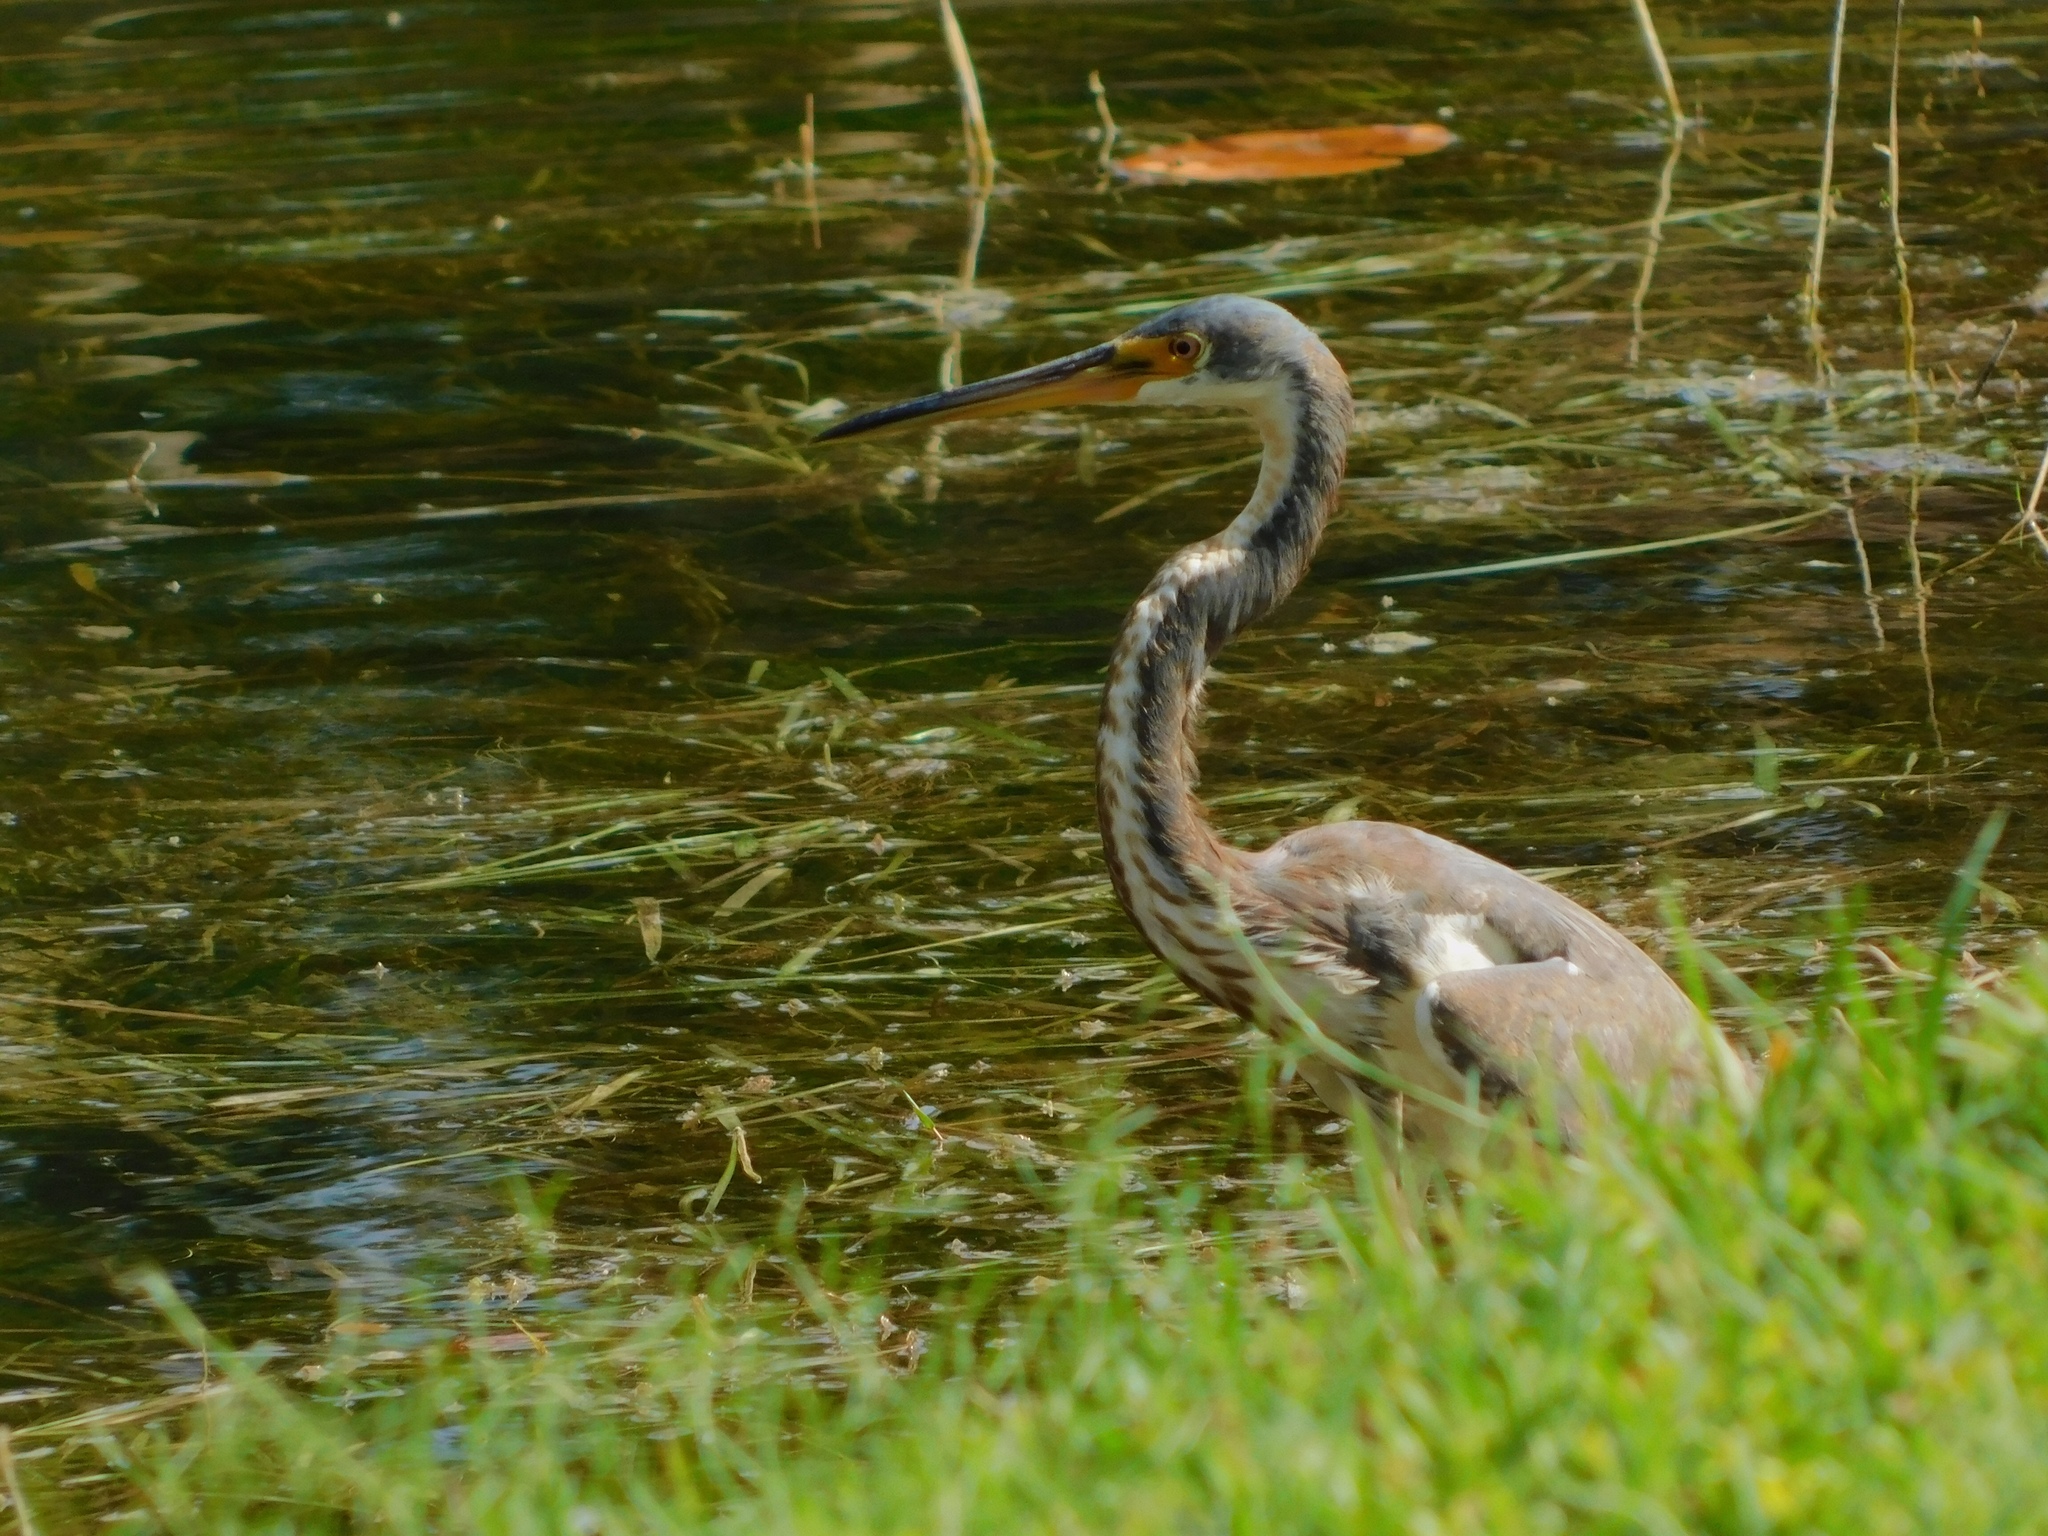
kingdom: Animalia
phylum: Chordata
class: Aves
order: Pelecaniformes
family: Ardeidae
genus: Egretta
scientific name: Egretta tricolor
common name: Tricolored heron
